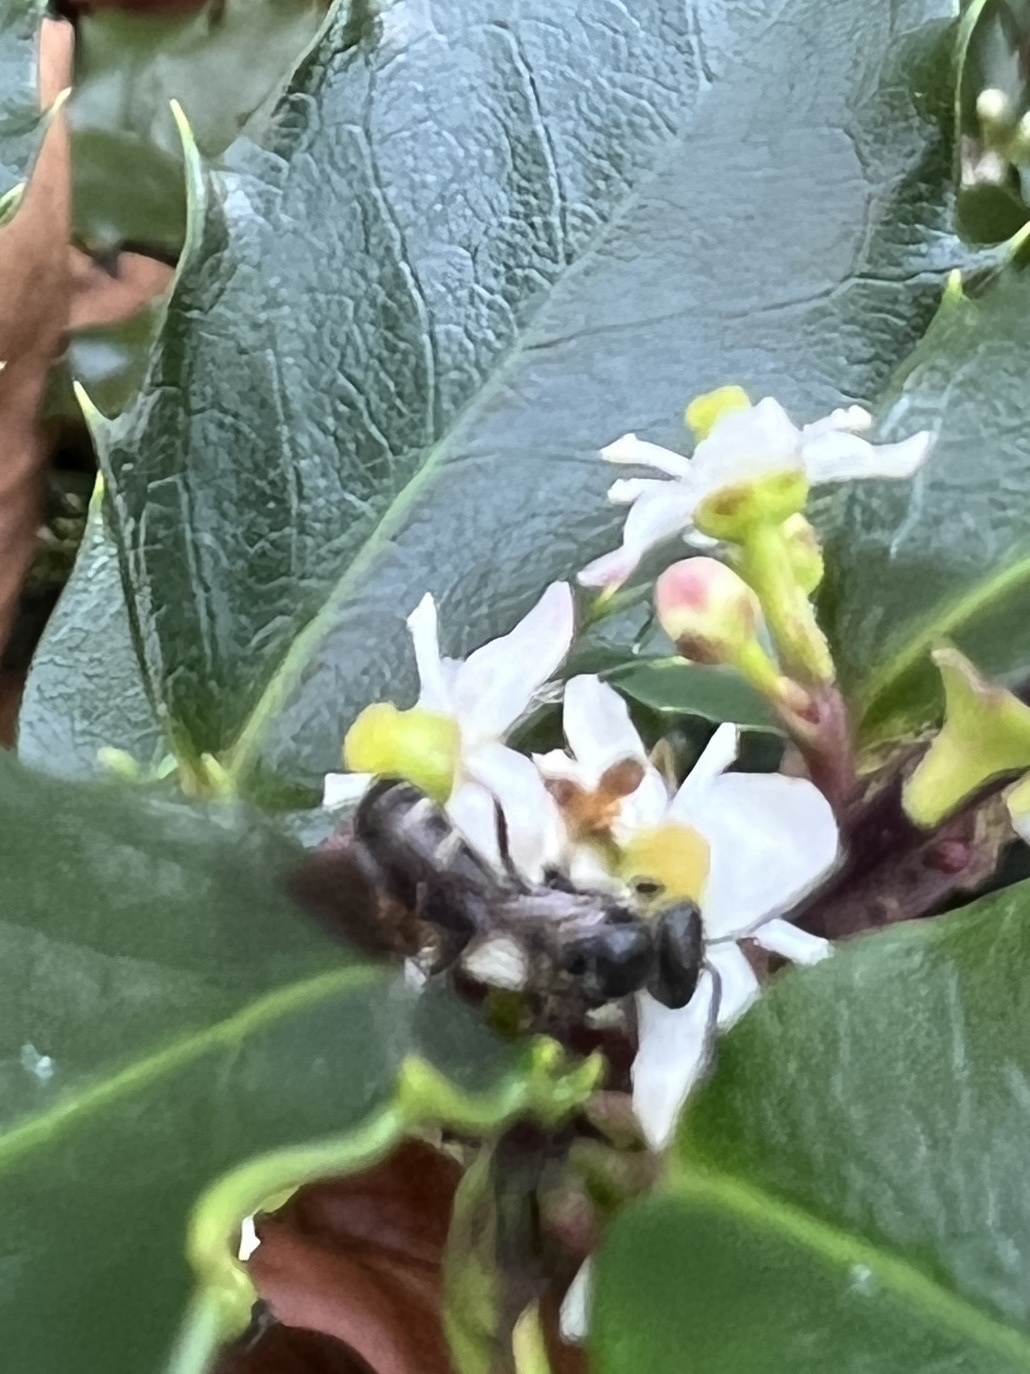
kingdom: Animalia
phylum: Arthropoda
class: Insecta
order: Hymenoptera
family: Halictidae
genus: Lasioglossum
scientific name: Lasioglossum fuscipenne
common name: Brown-winged sweat bee
